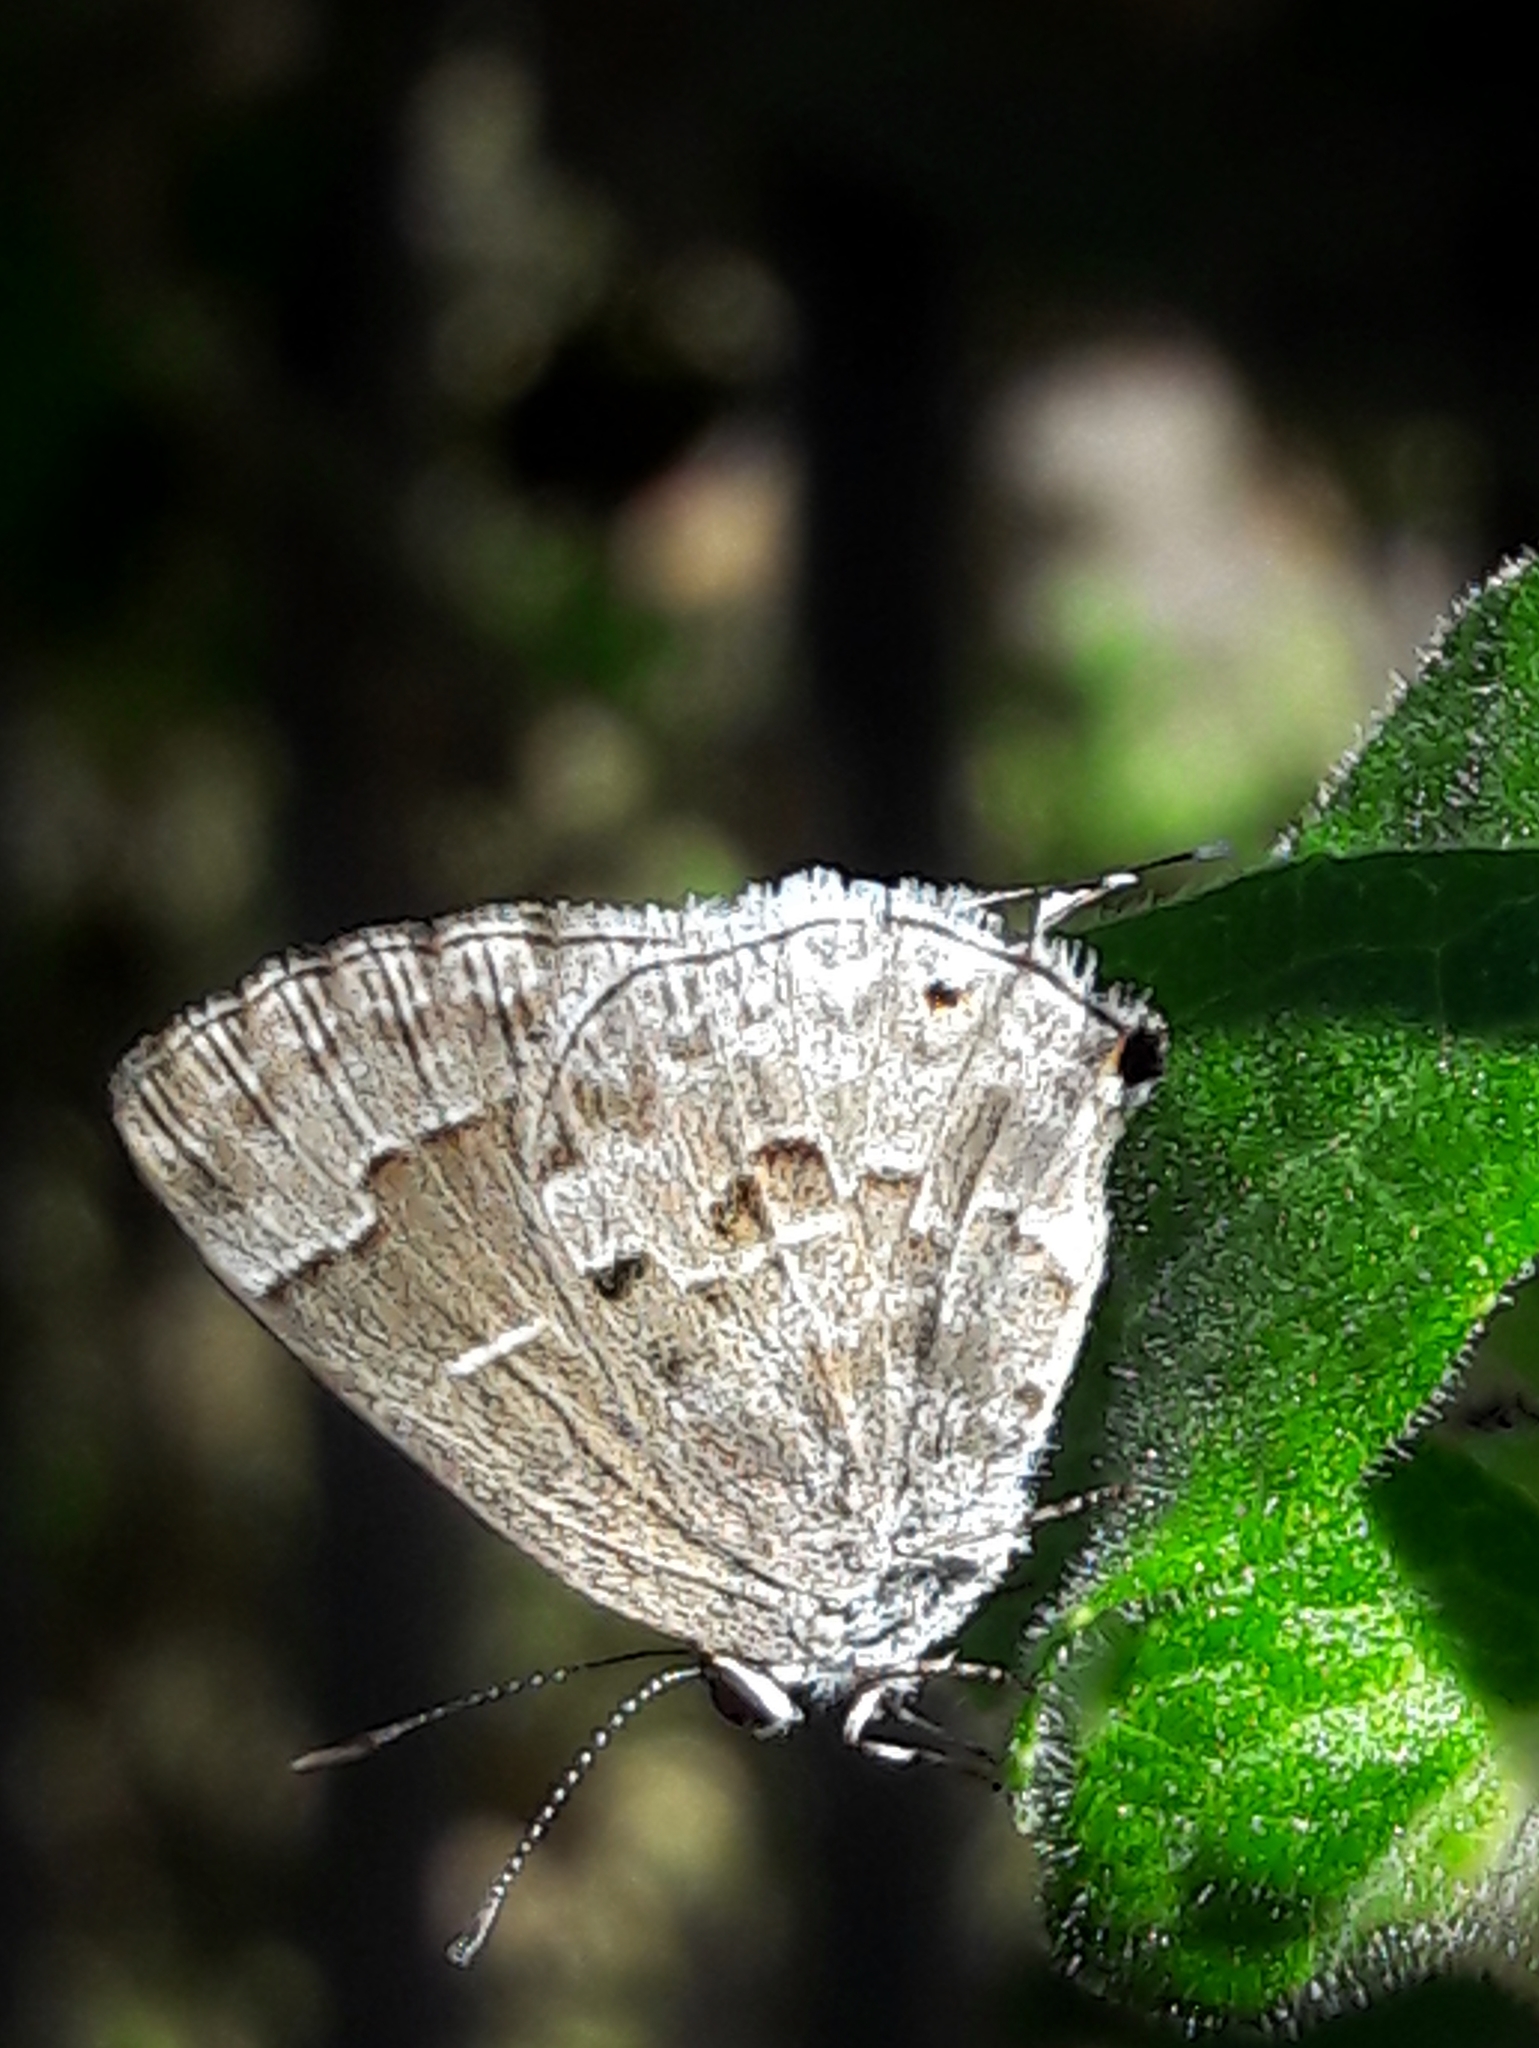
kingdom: Animalia
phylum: Arthropoda
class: Insecta
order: Lepidoptera
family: Lycaenidae
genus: Strymon
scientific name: Strymon mulucha
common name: Mottled scrub-hairstreak
